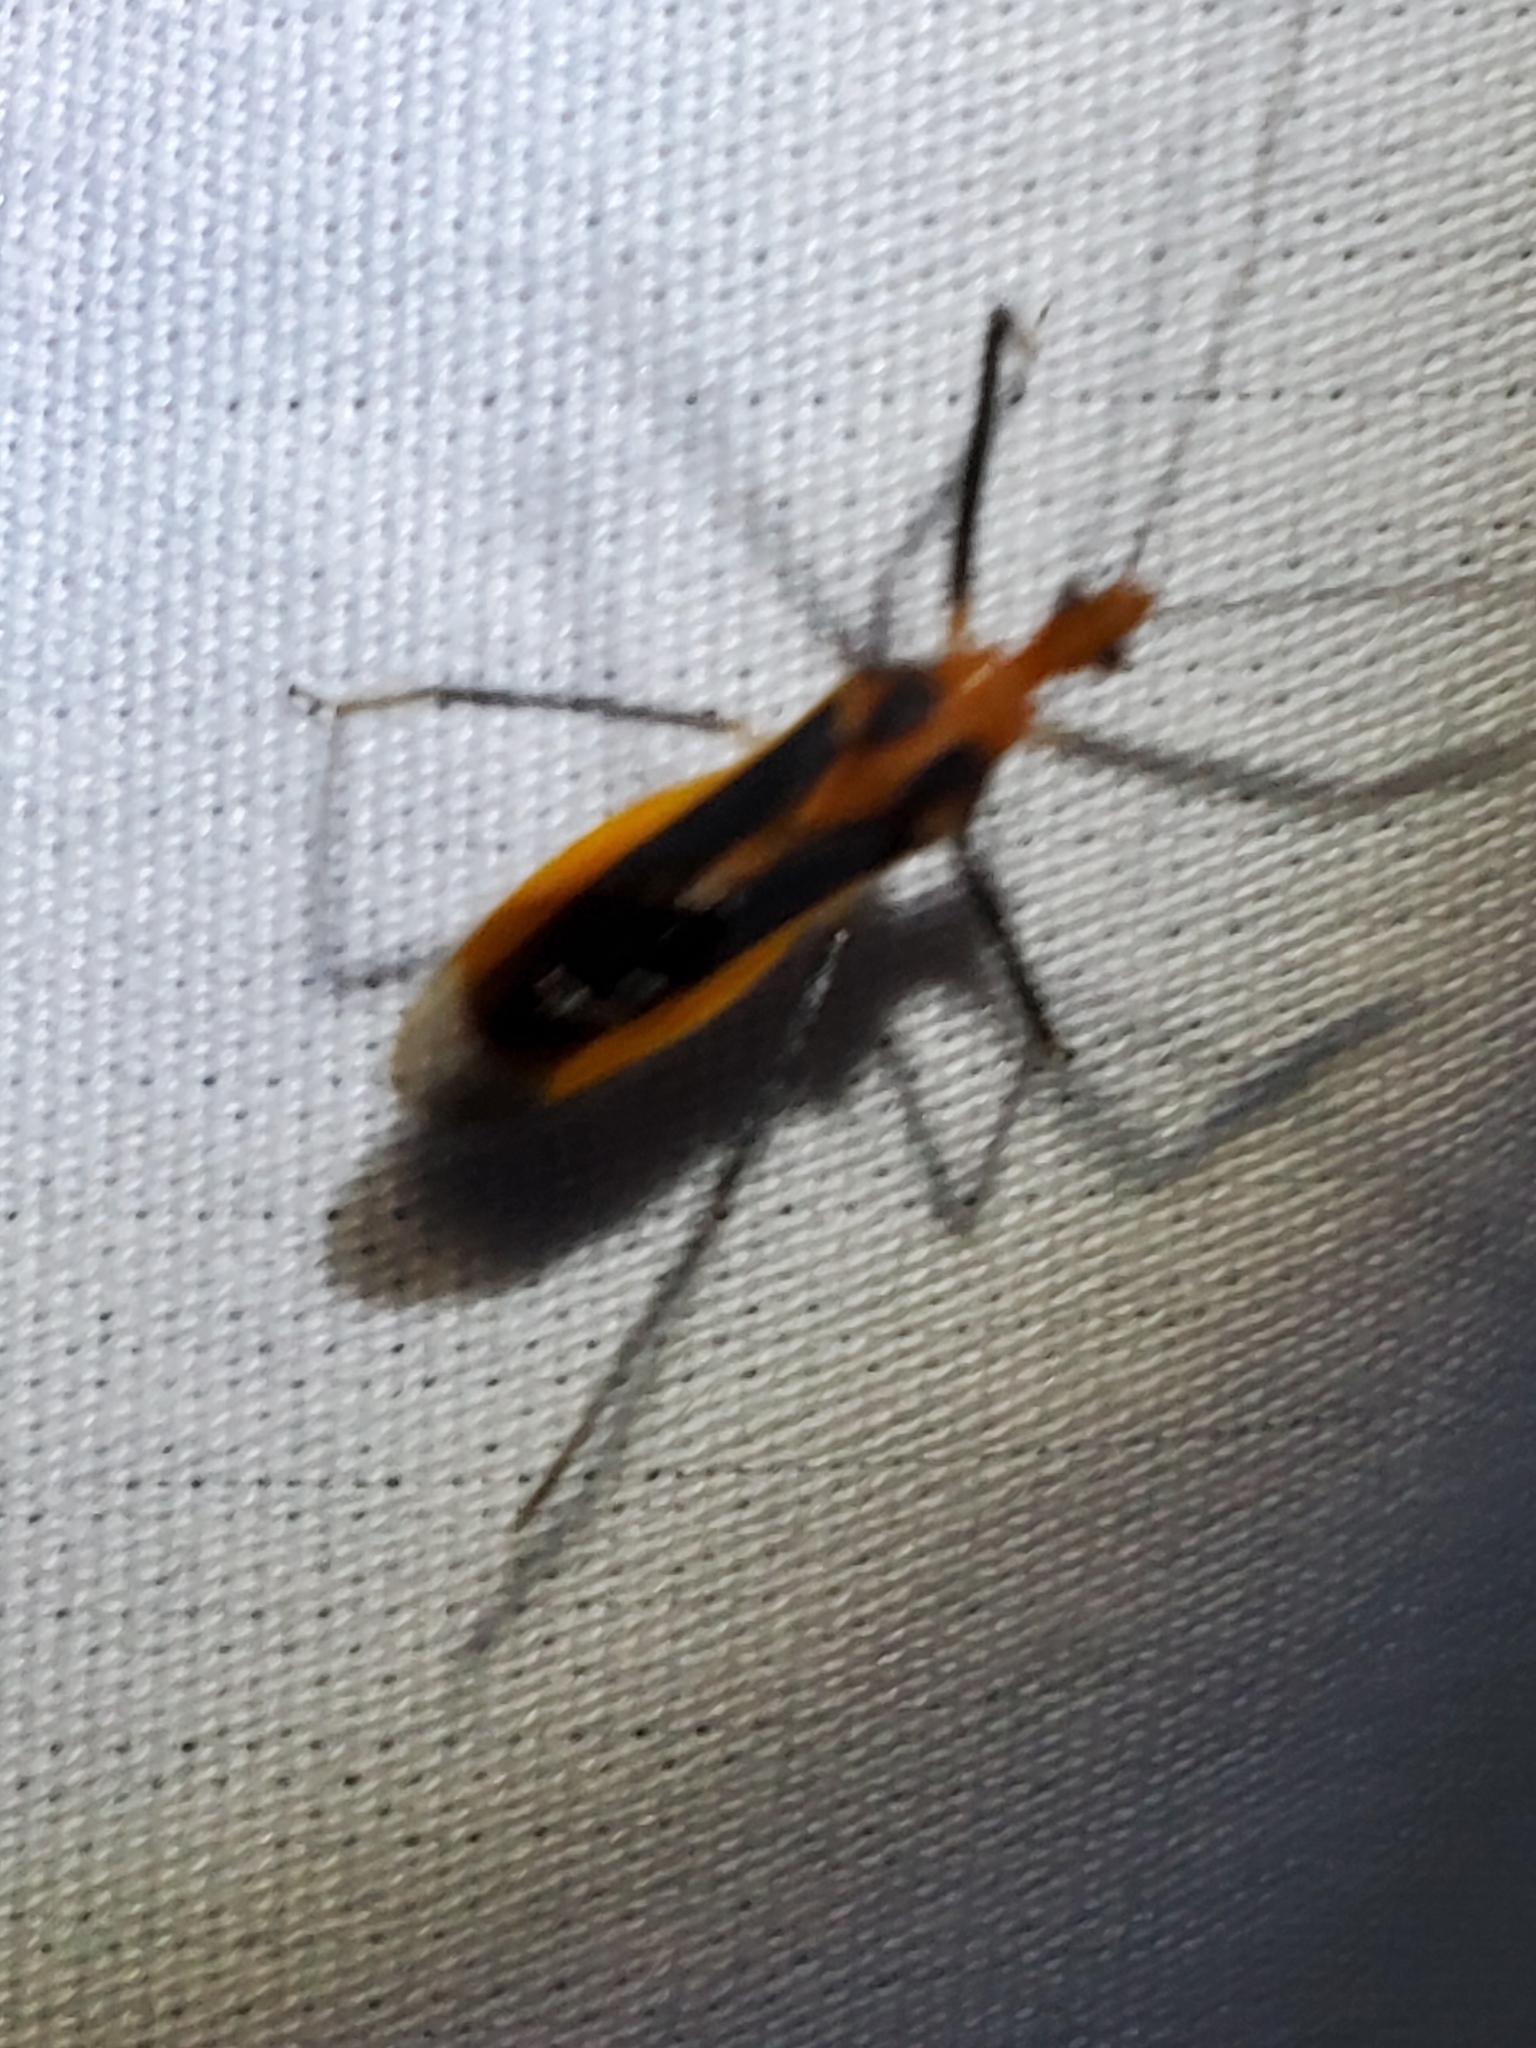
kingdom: Animalia
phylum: Arthropoda
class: Insecta
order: Hemiptera
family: Reduviidae
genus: Repipta
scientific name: Repipta taurus
